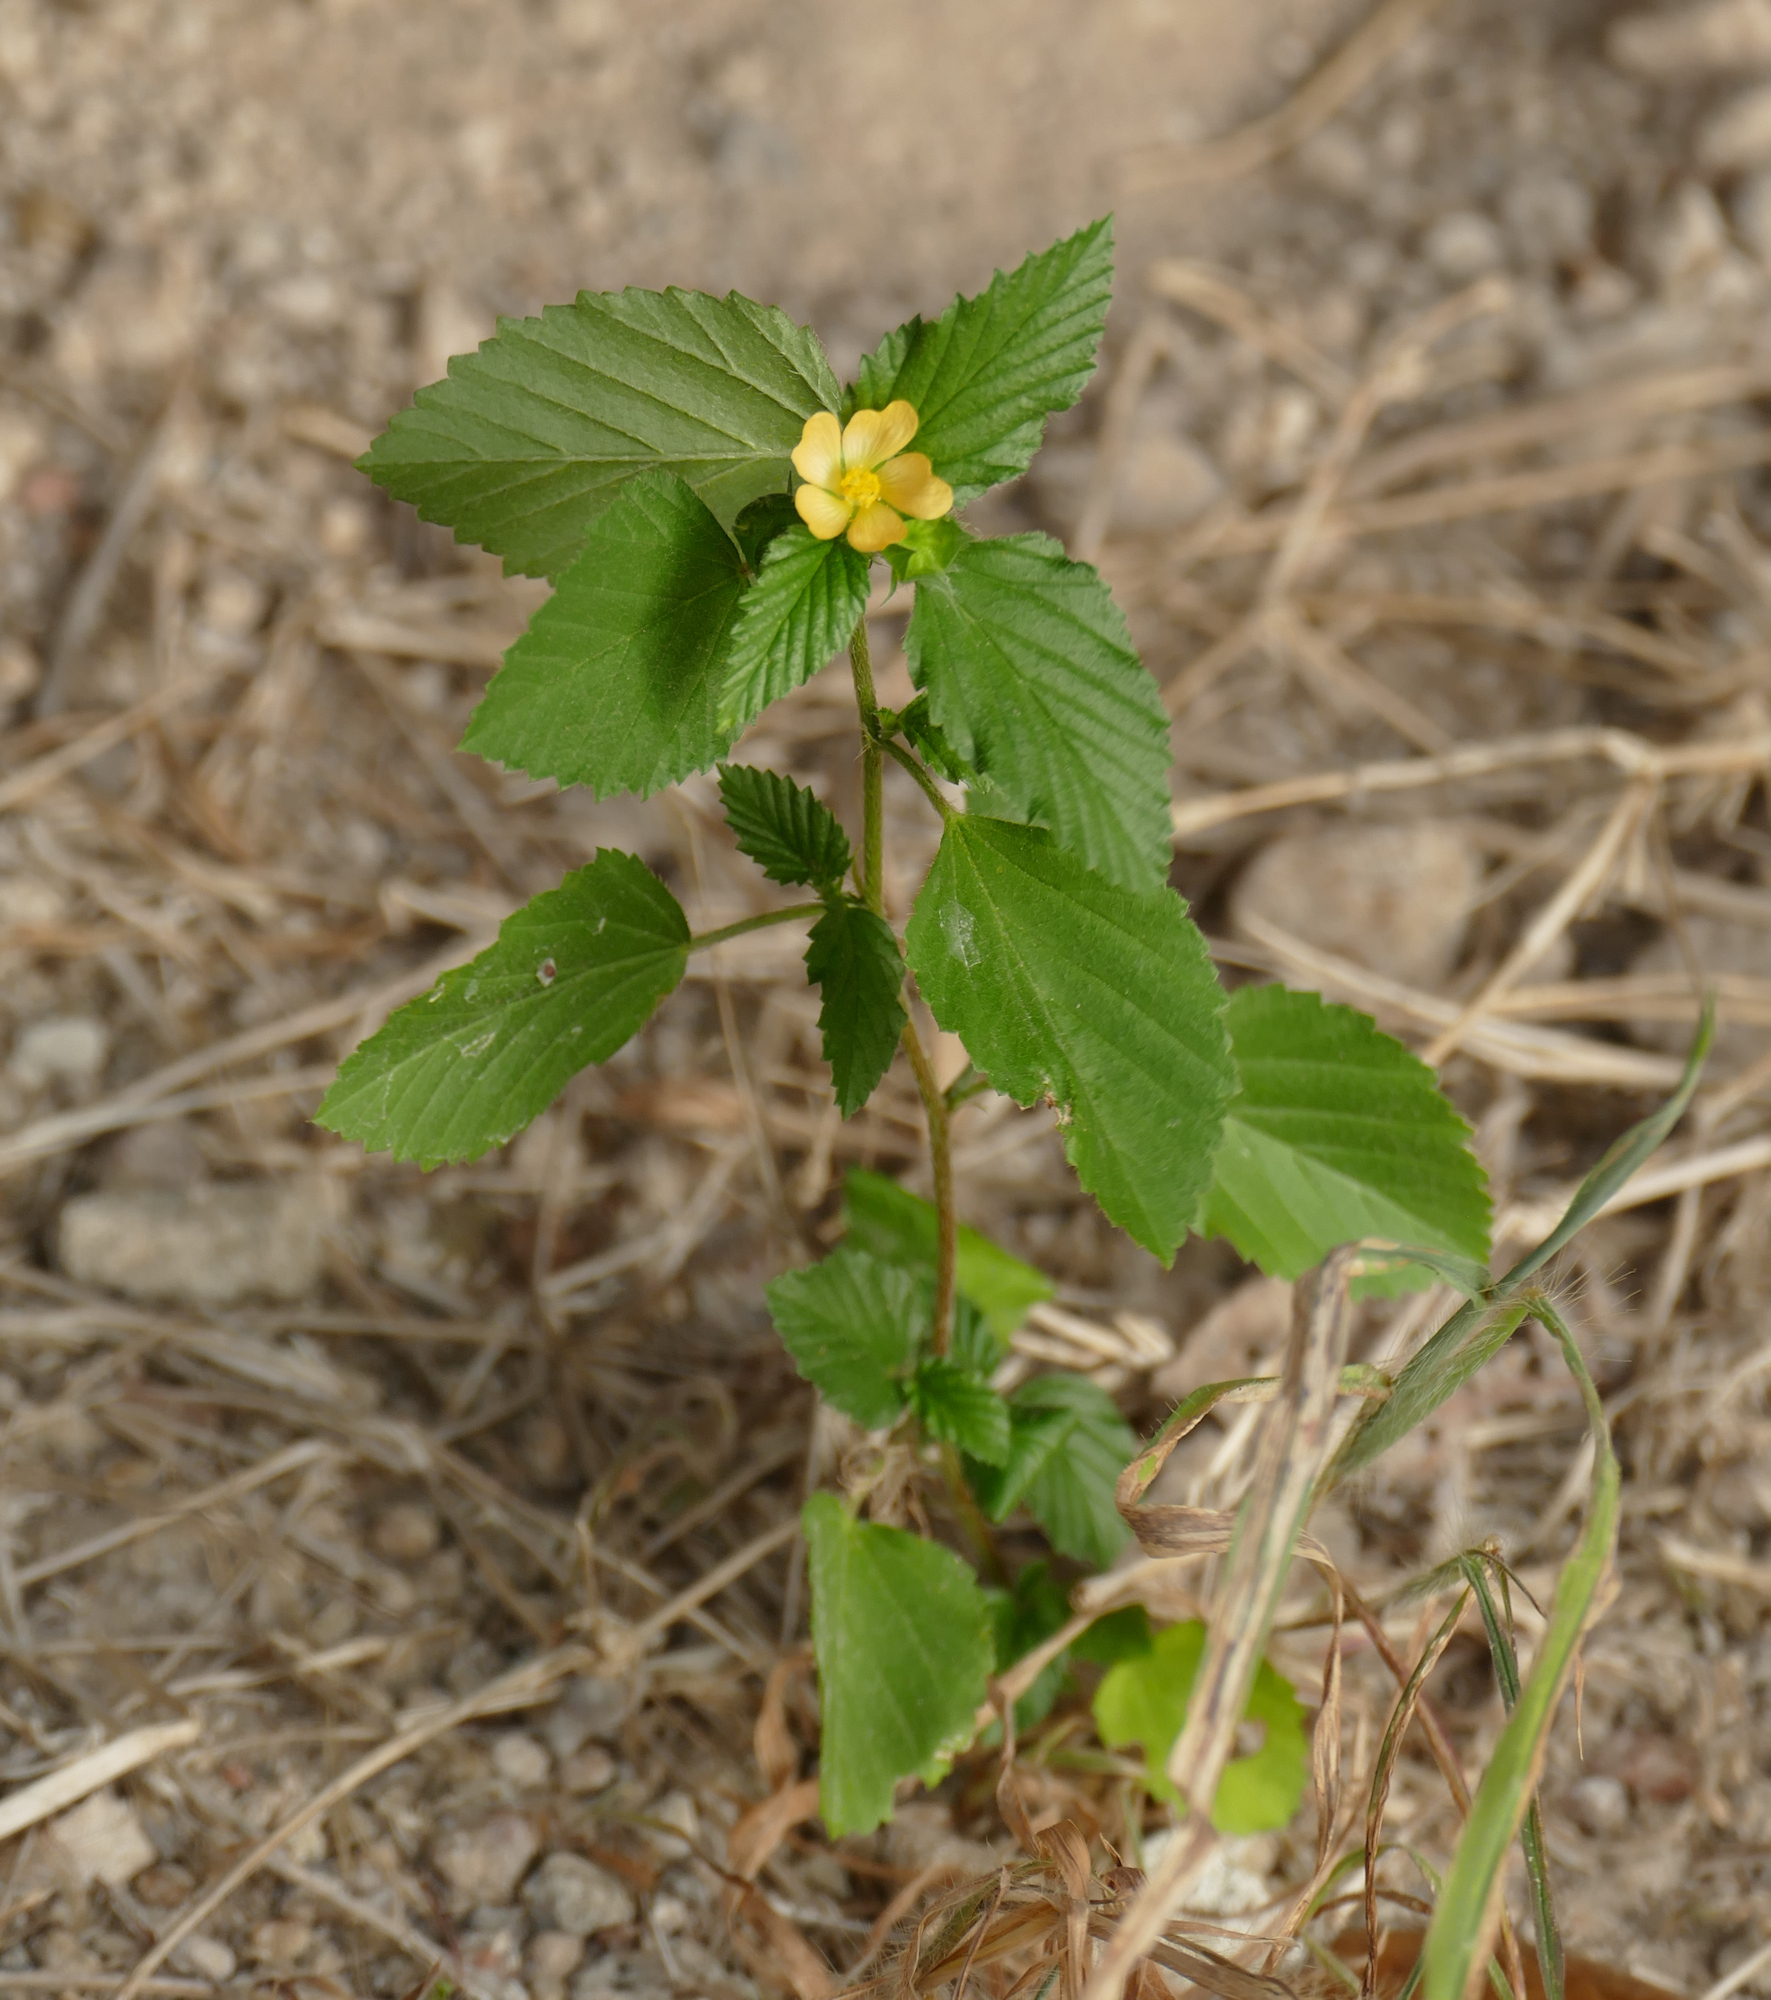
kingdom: Plantae
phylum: Tracheophyta
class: Magnoliopsida
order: Malvales
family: Malvaceae
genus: Malvastrum
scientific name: Malvastrum coromandelianum
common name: Threelobe false mallow
